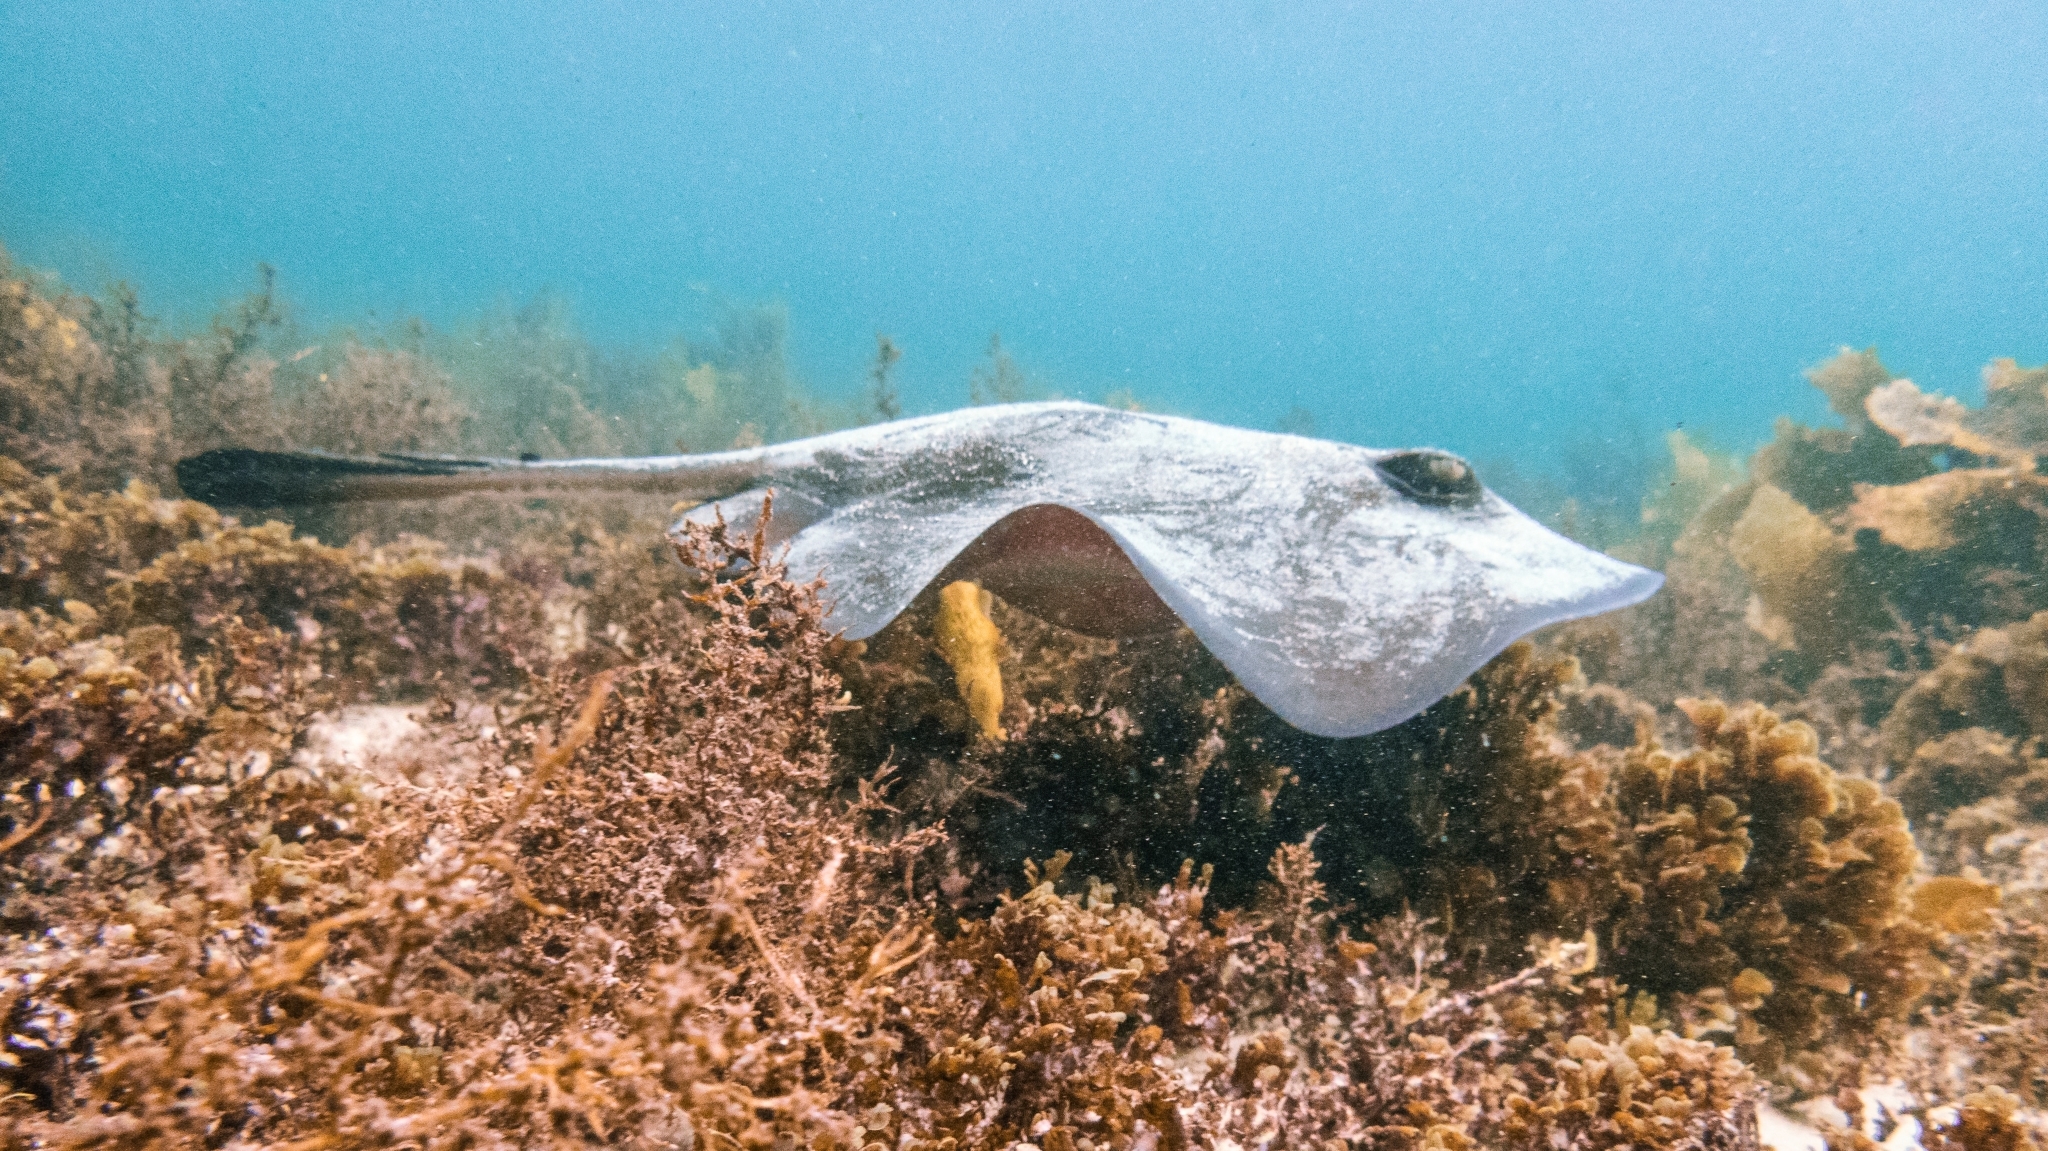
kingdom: Animalia
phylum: Chordata
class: Elasmobranchii
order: Myliobatiformes
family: Urolophidae
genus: Trygonoptera
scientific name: Trygonoptera testacea
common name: Common stingaree
